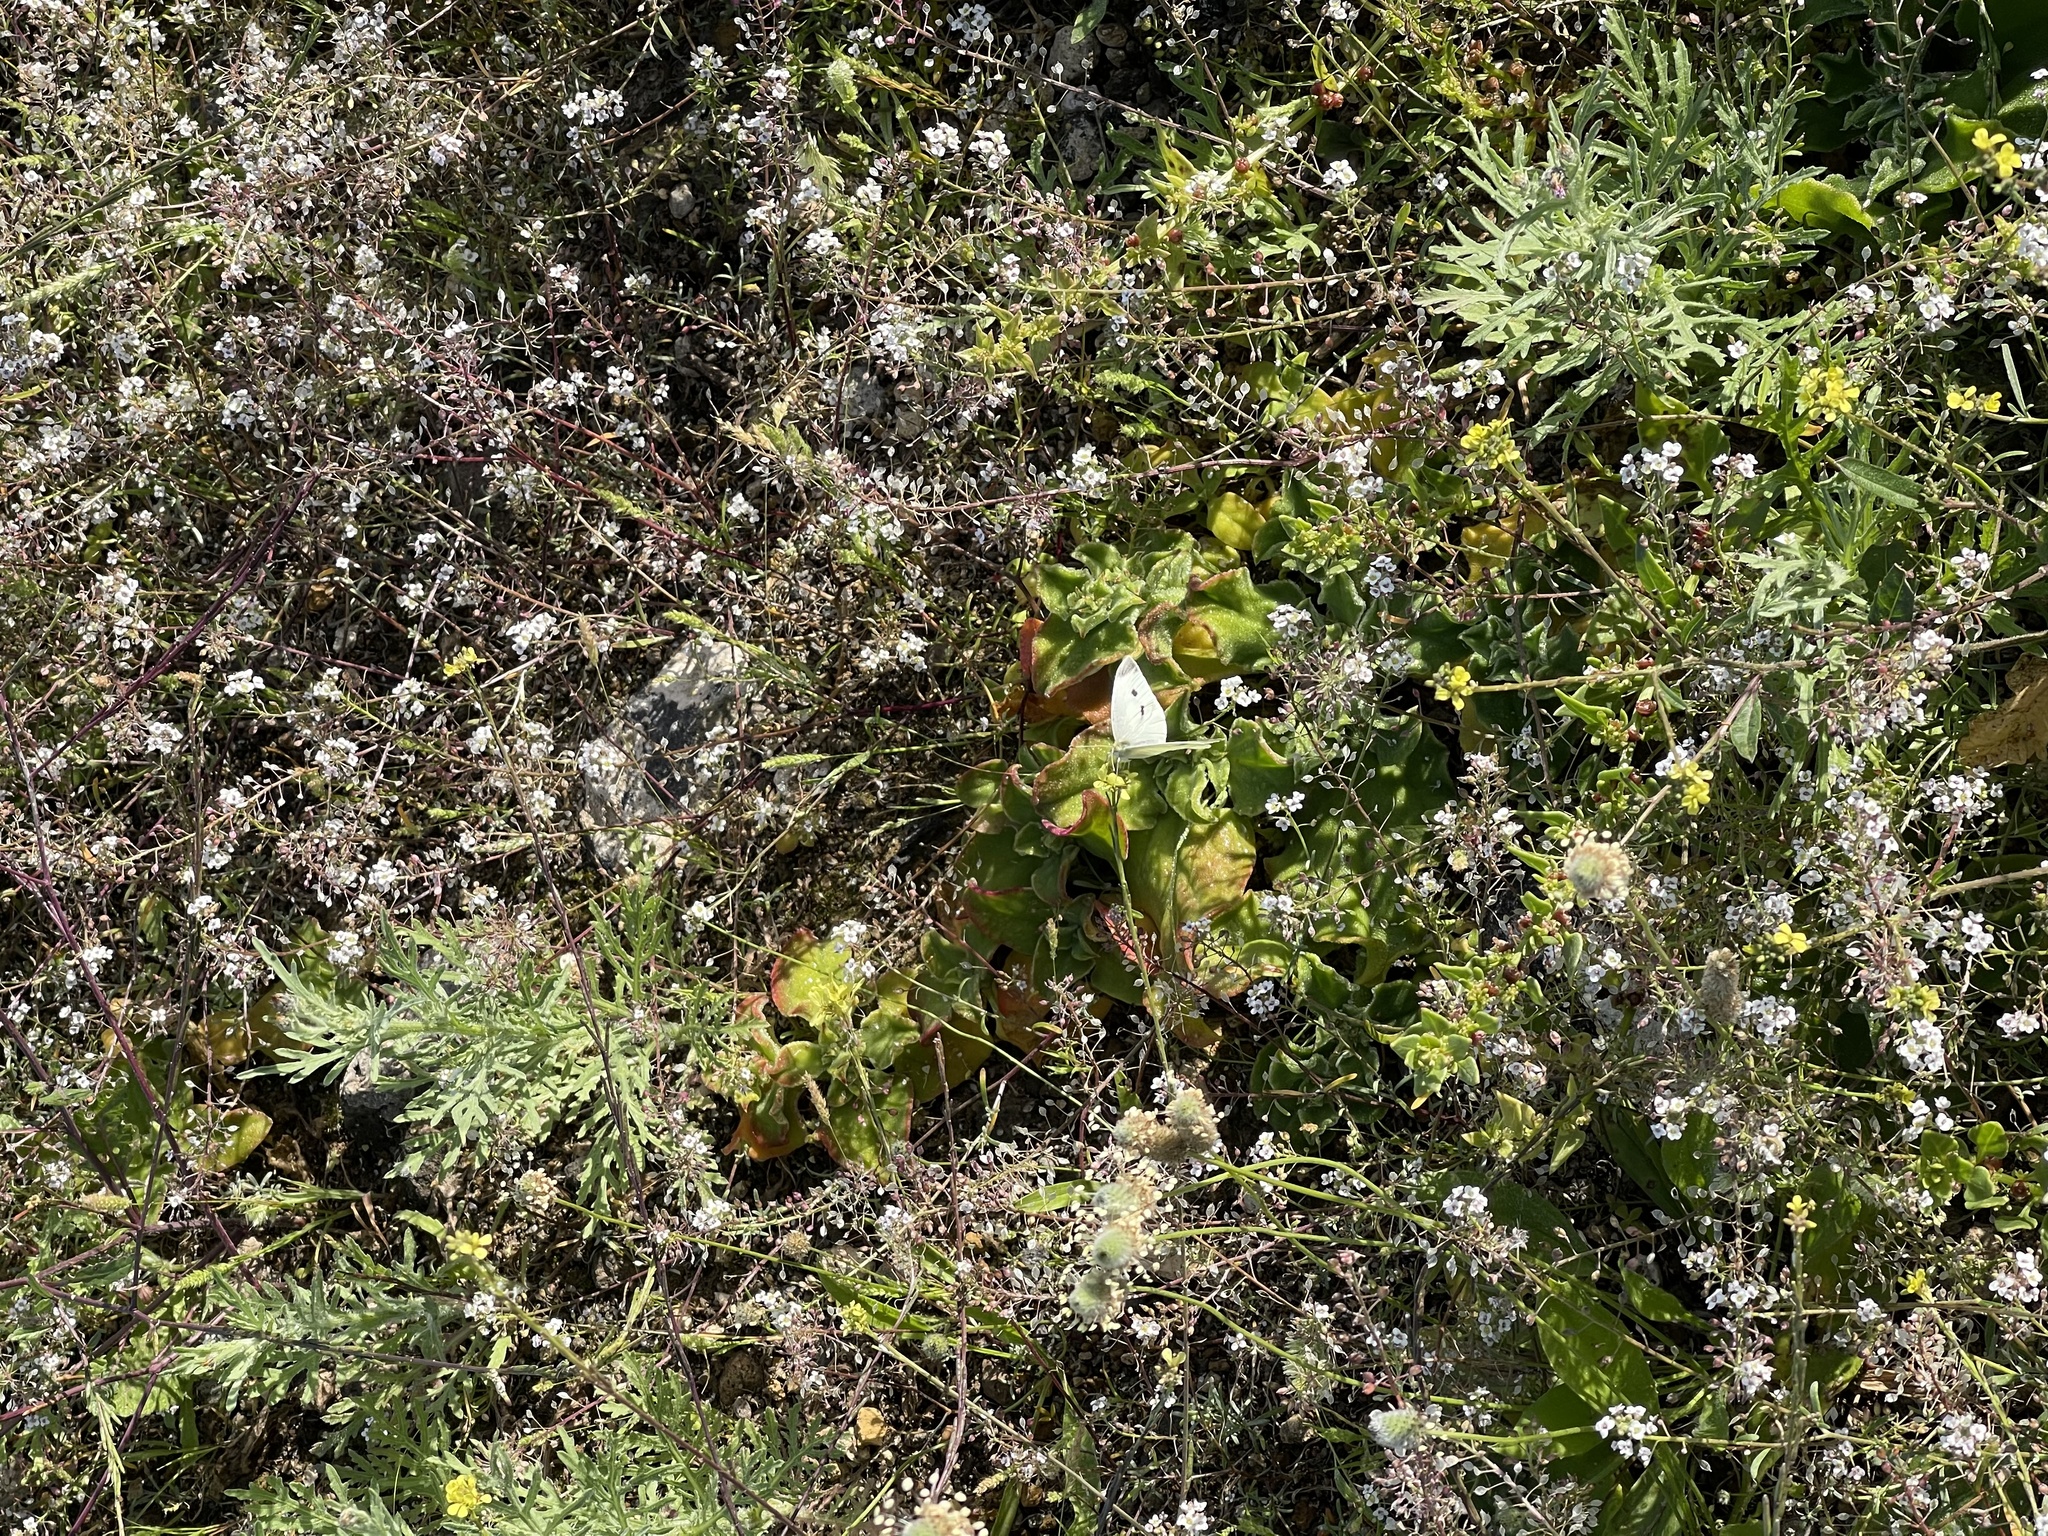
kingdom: Animalia
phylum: Arthropoda
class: Insecta
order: Lepidoptera
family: Pieridae
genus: Pieris
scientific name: Pieris rapae
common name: Small white
